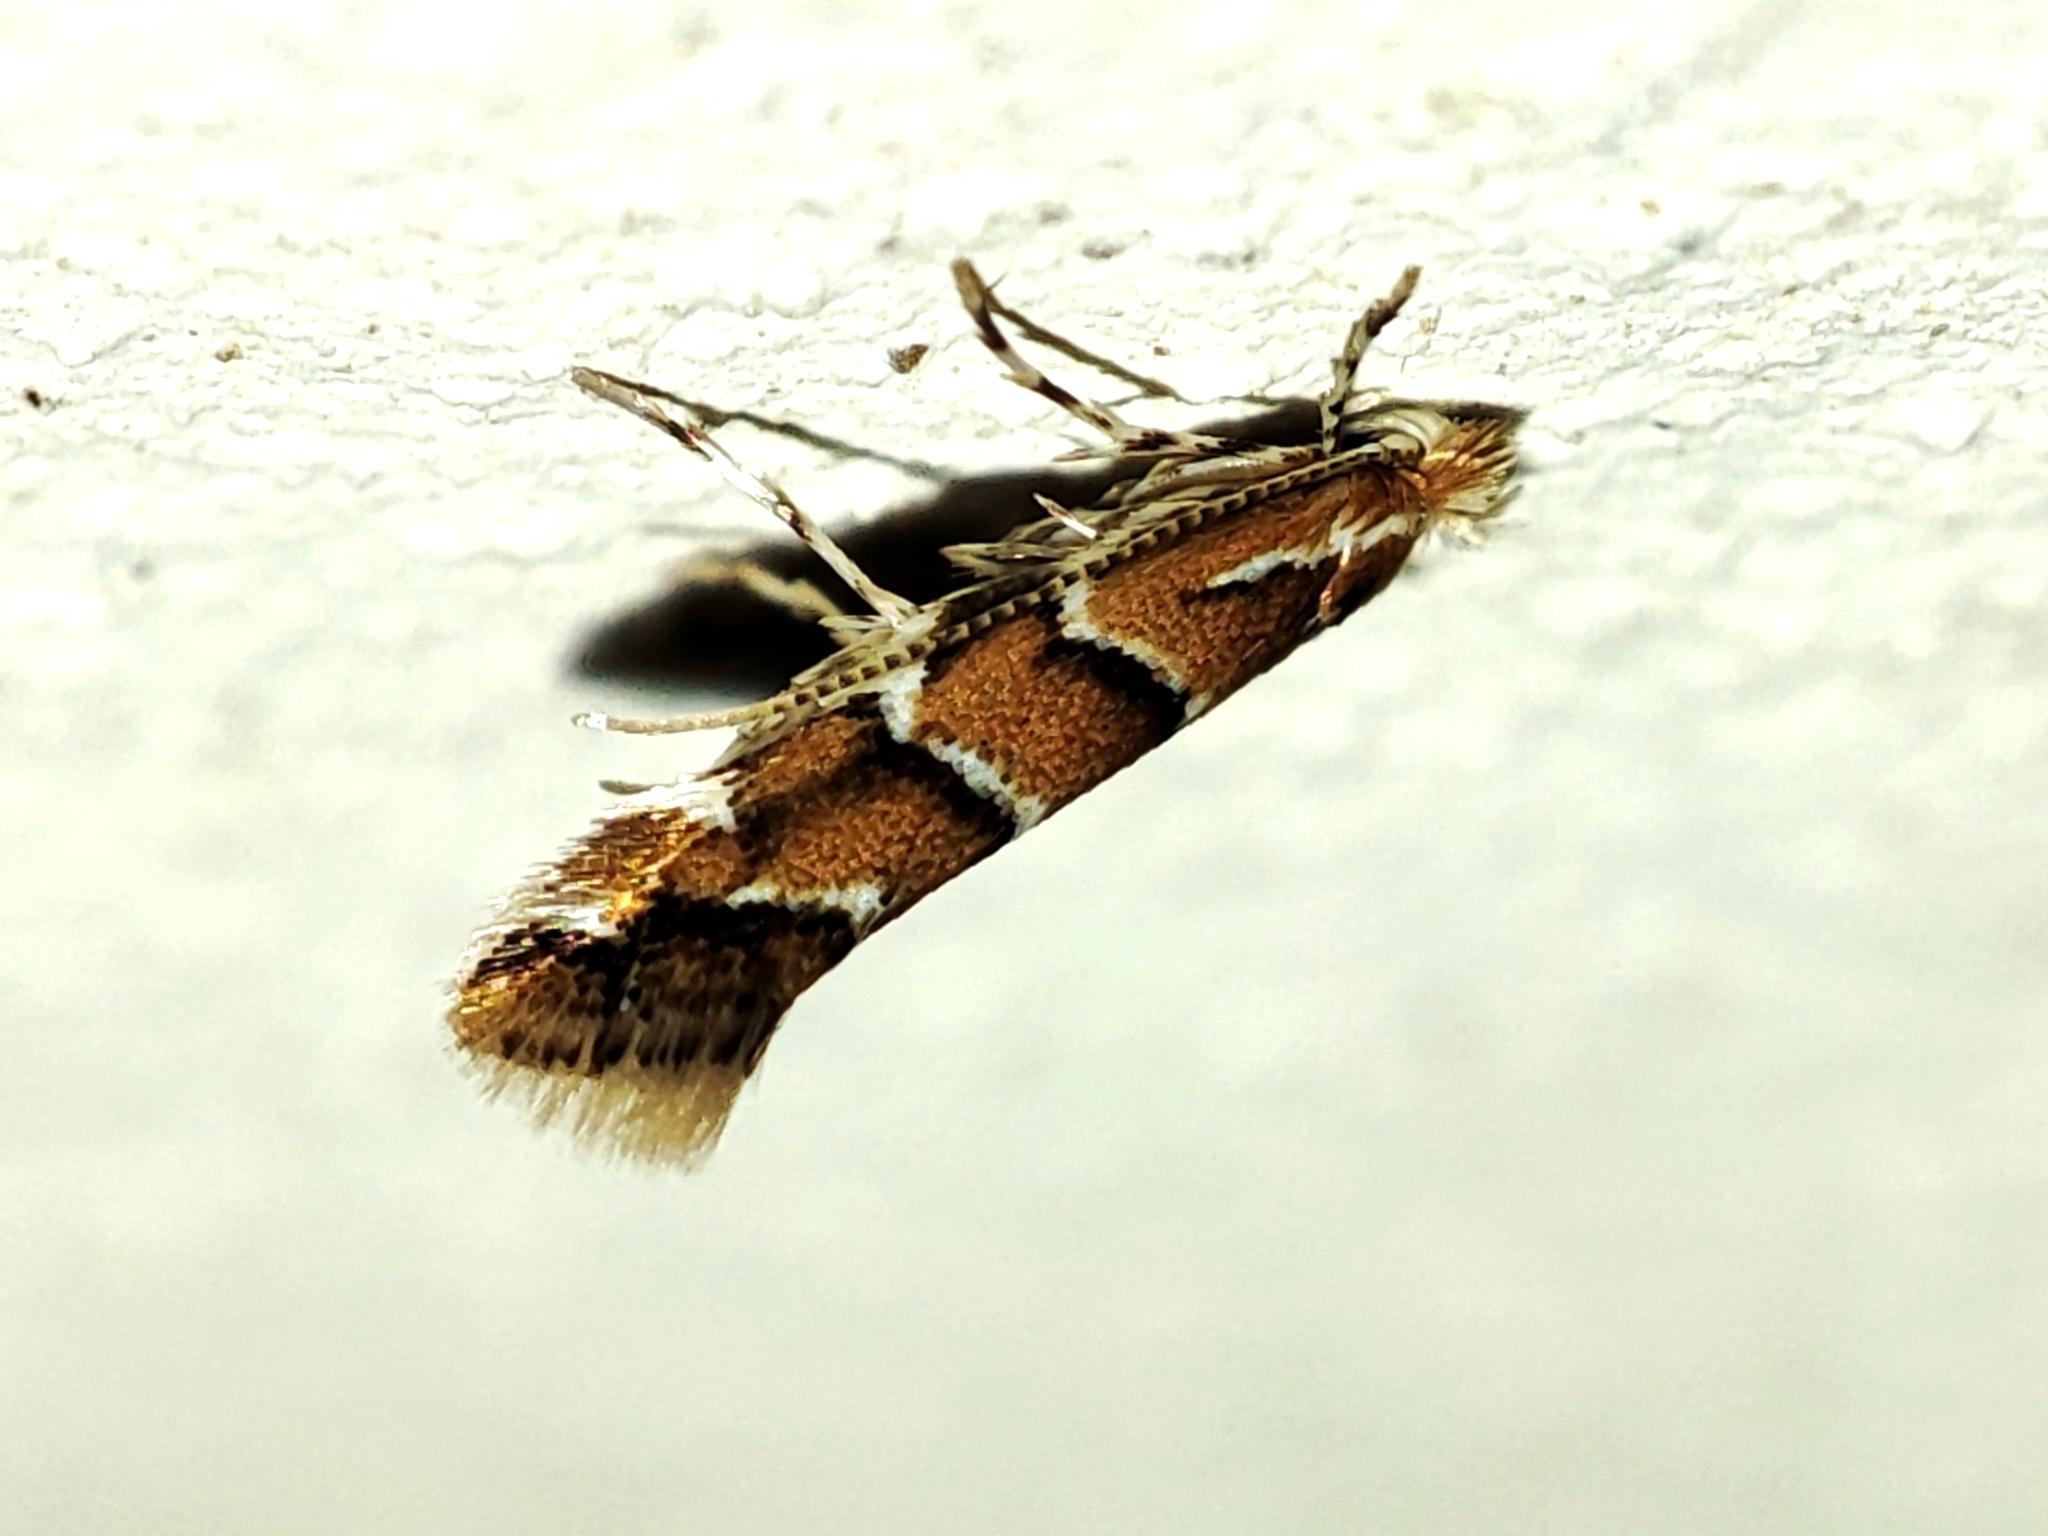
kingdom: Animalia
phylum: Arthropoda
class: Insecta
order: Lepidoptera
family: Gracillariidae
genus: Cameraria
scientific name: Cameraria ohridella
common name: Horse-chestnut leaf-miner
